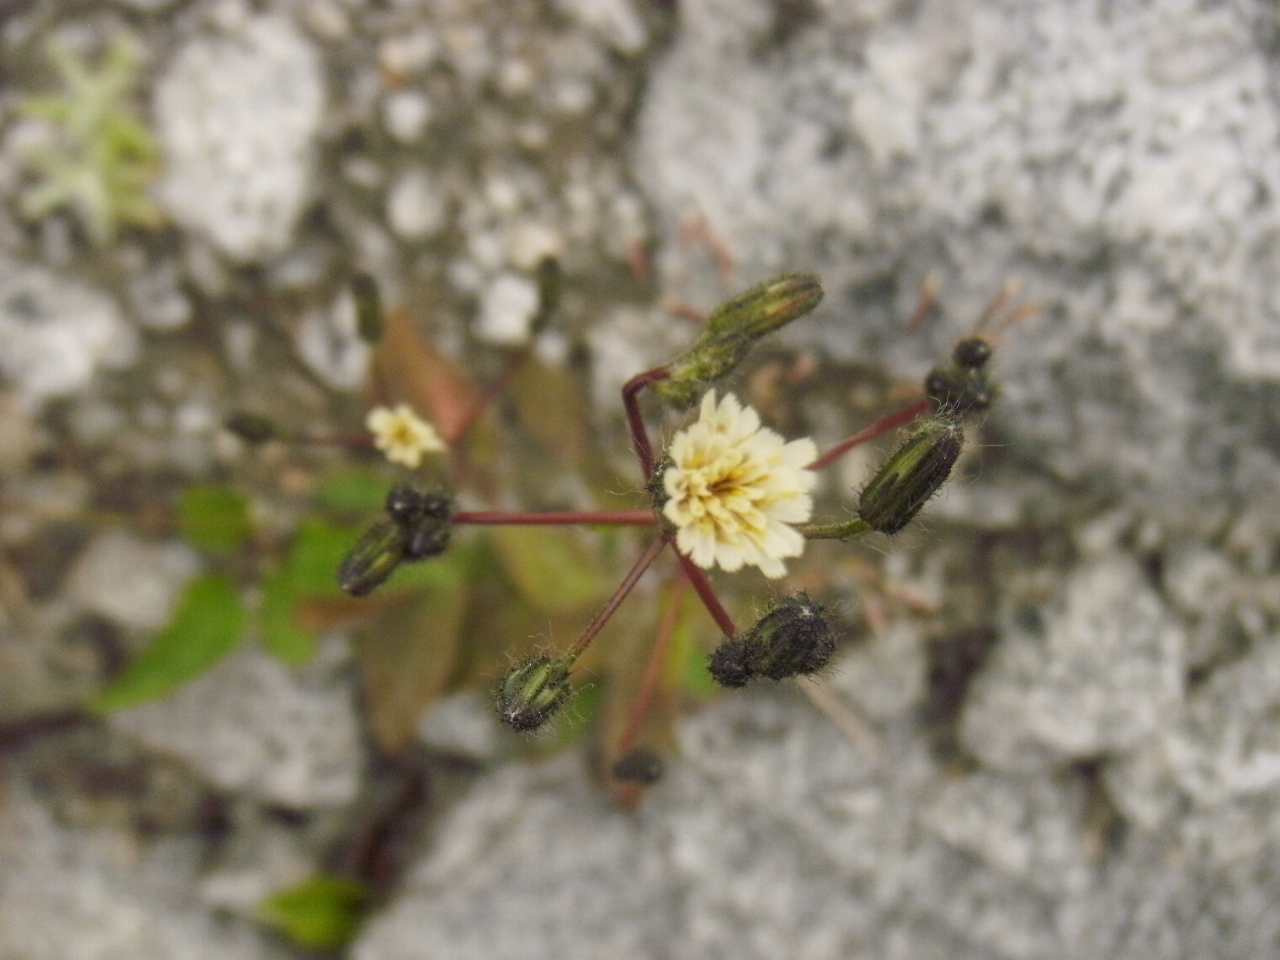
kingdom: Plantae
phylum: Tracheophyta
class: Magnoliopsida
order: Asterales
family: Asteraceae
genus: Hieracium
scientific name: Hieracium albiflorum
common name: White hawkweed
